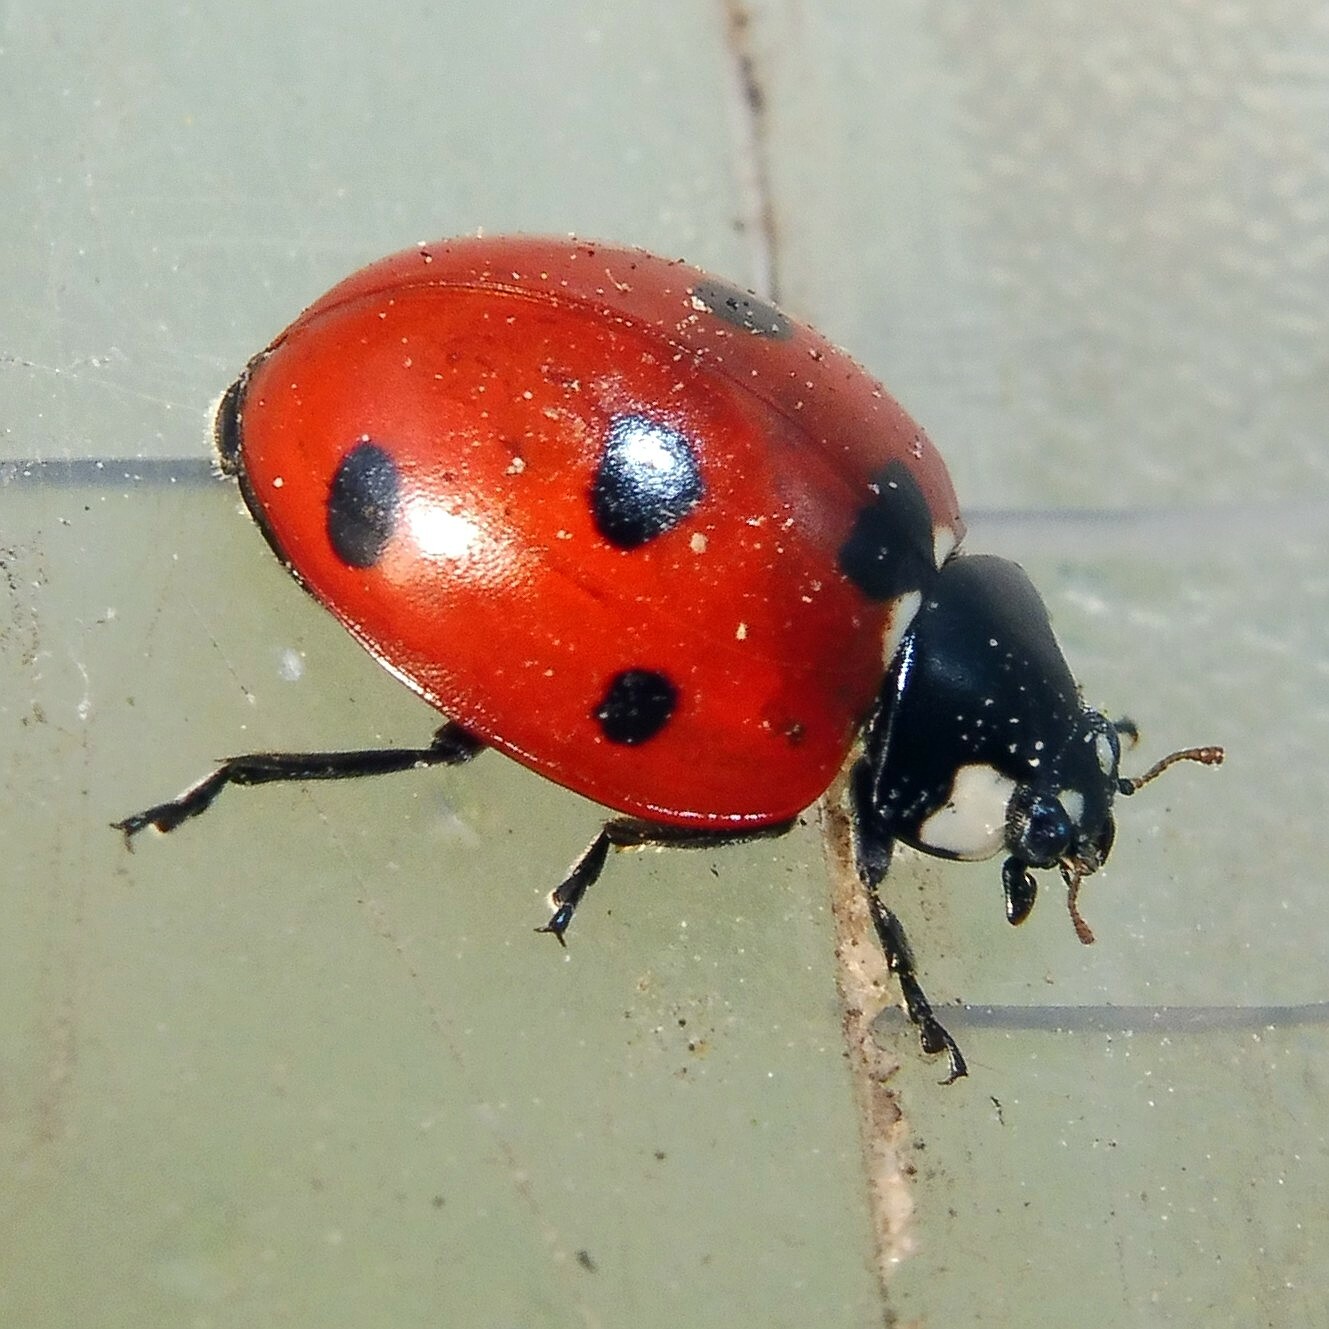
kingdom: Animalia
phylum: Arthropoda
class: Insecta
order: Coleoptera
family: Coccinellidae
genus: Coccinella
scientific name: Coccinella septempunctata
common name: Sevenspotted lady beetle
